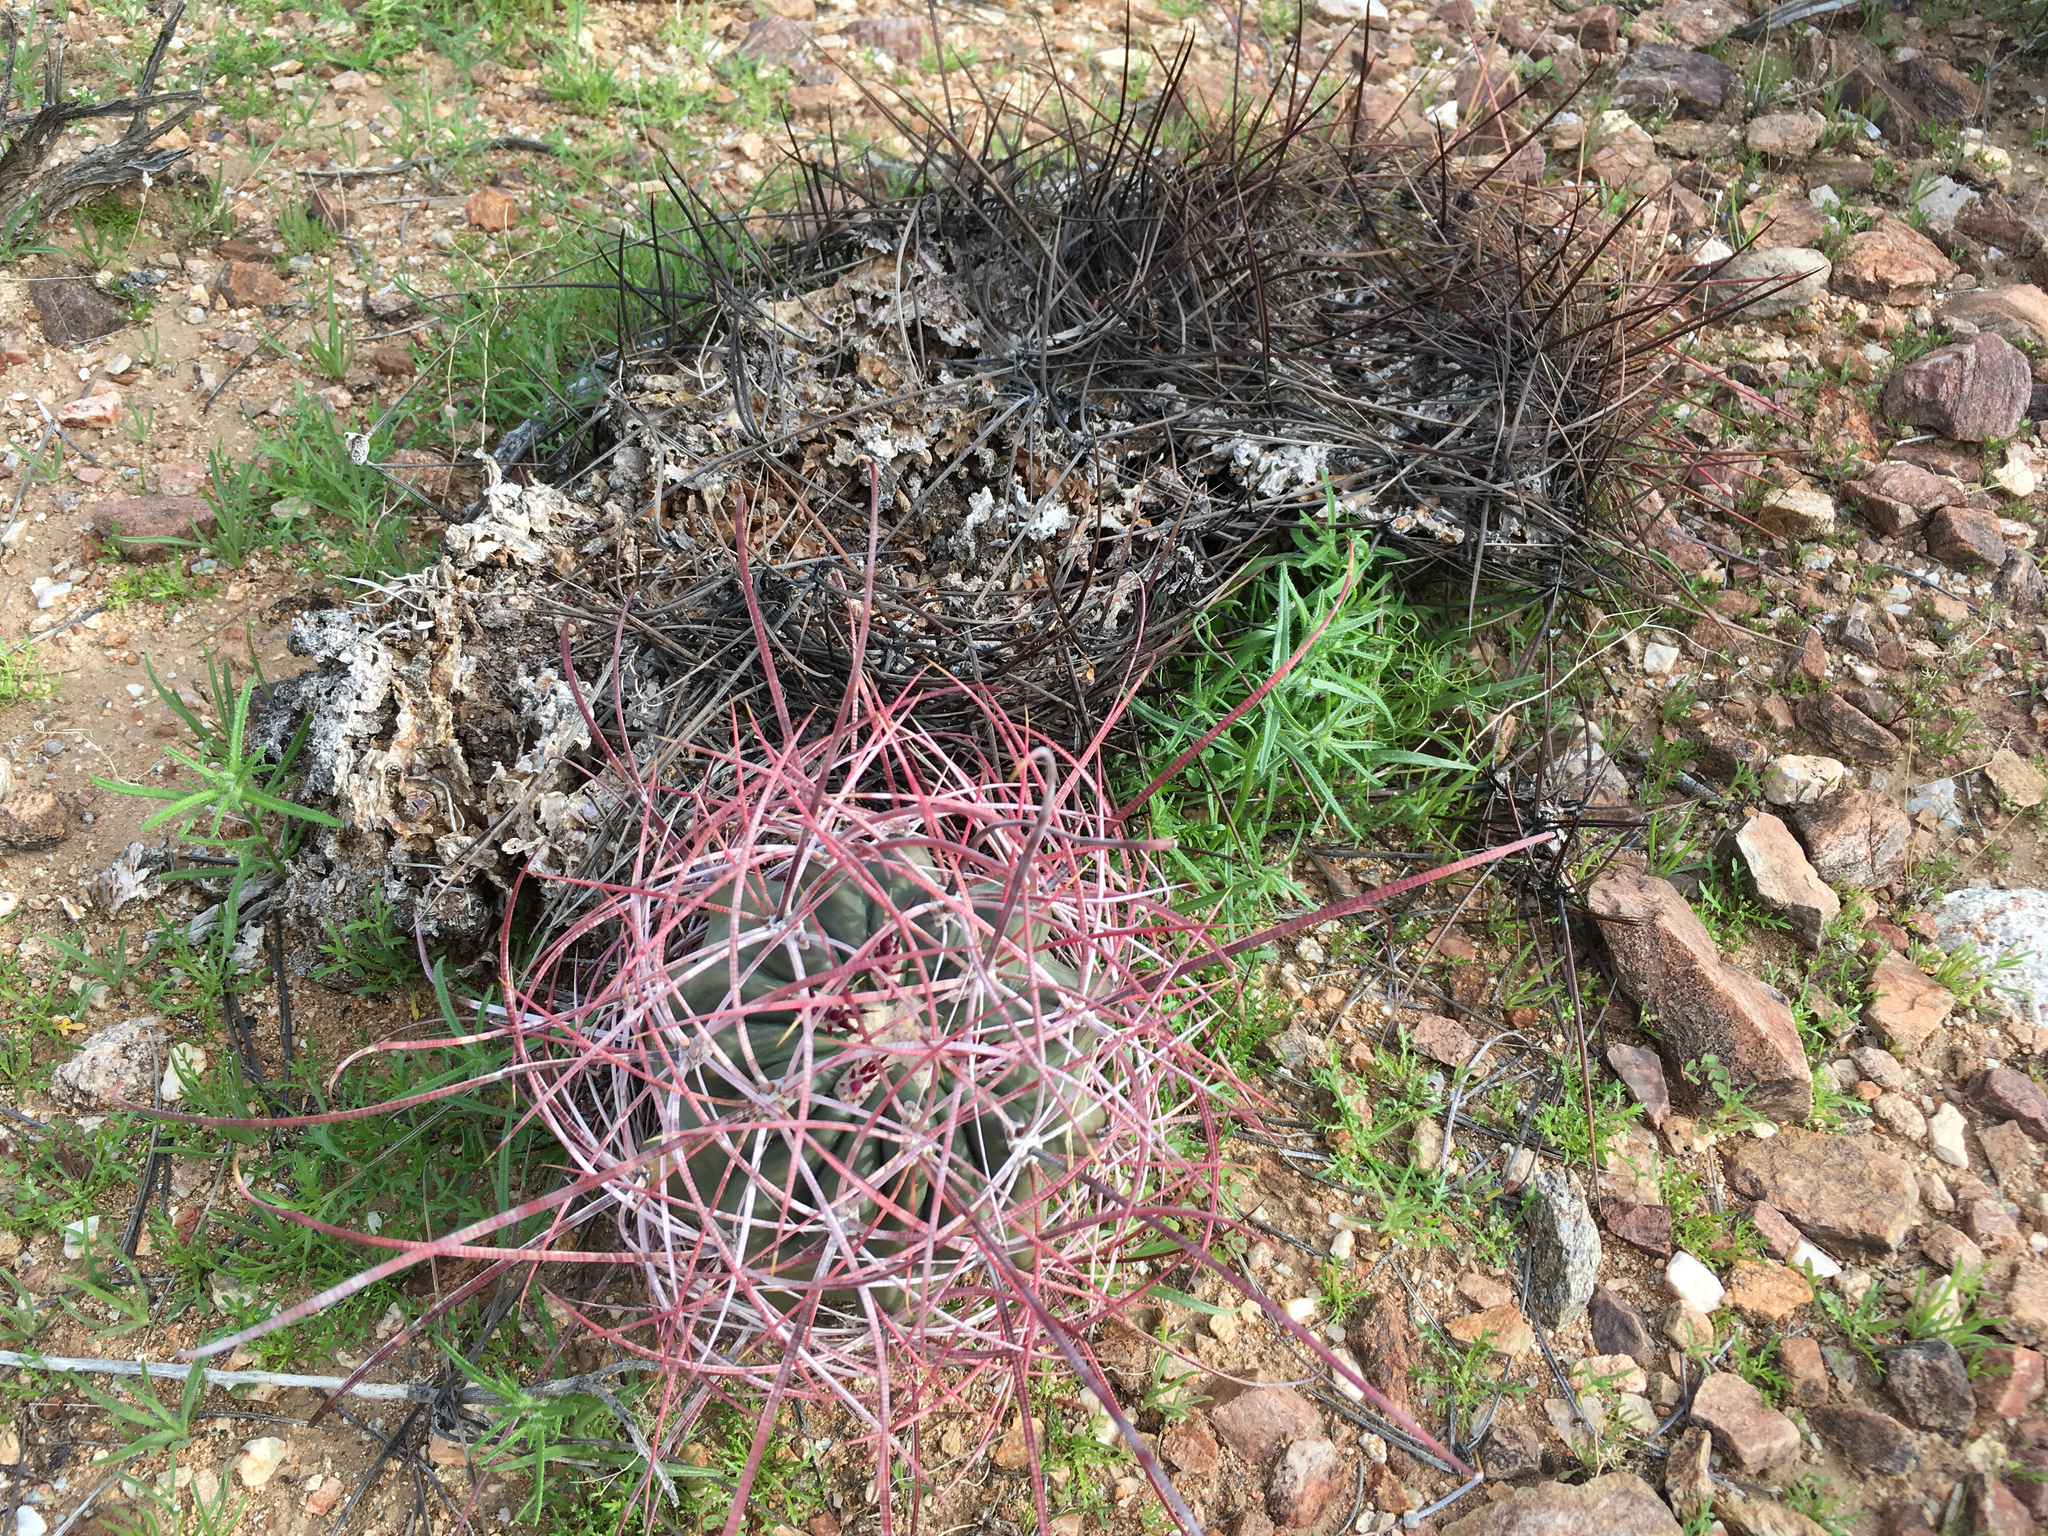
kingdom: Plantae
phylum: Tracheophyta
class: Magnoliopsida
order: Caryophyllales
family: Cactaceae
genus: Ferocactus
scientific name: Ferocactus cylindraceus
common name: California barrel cactus
